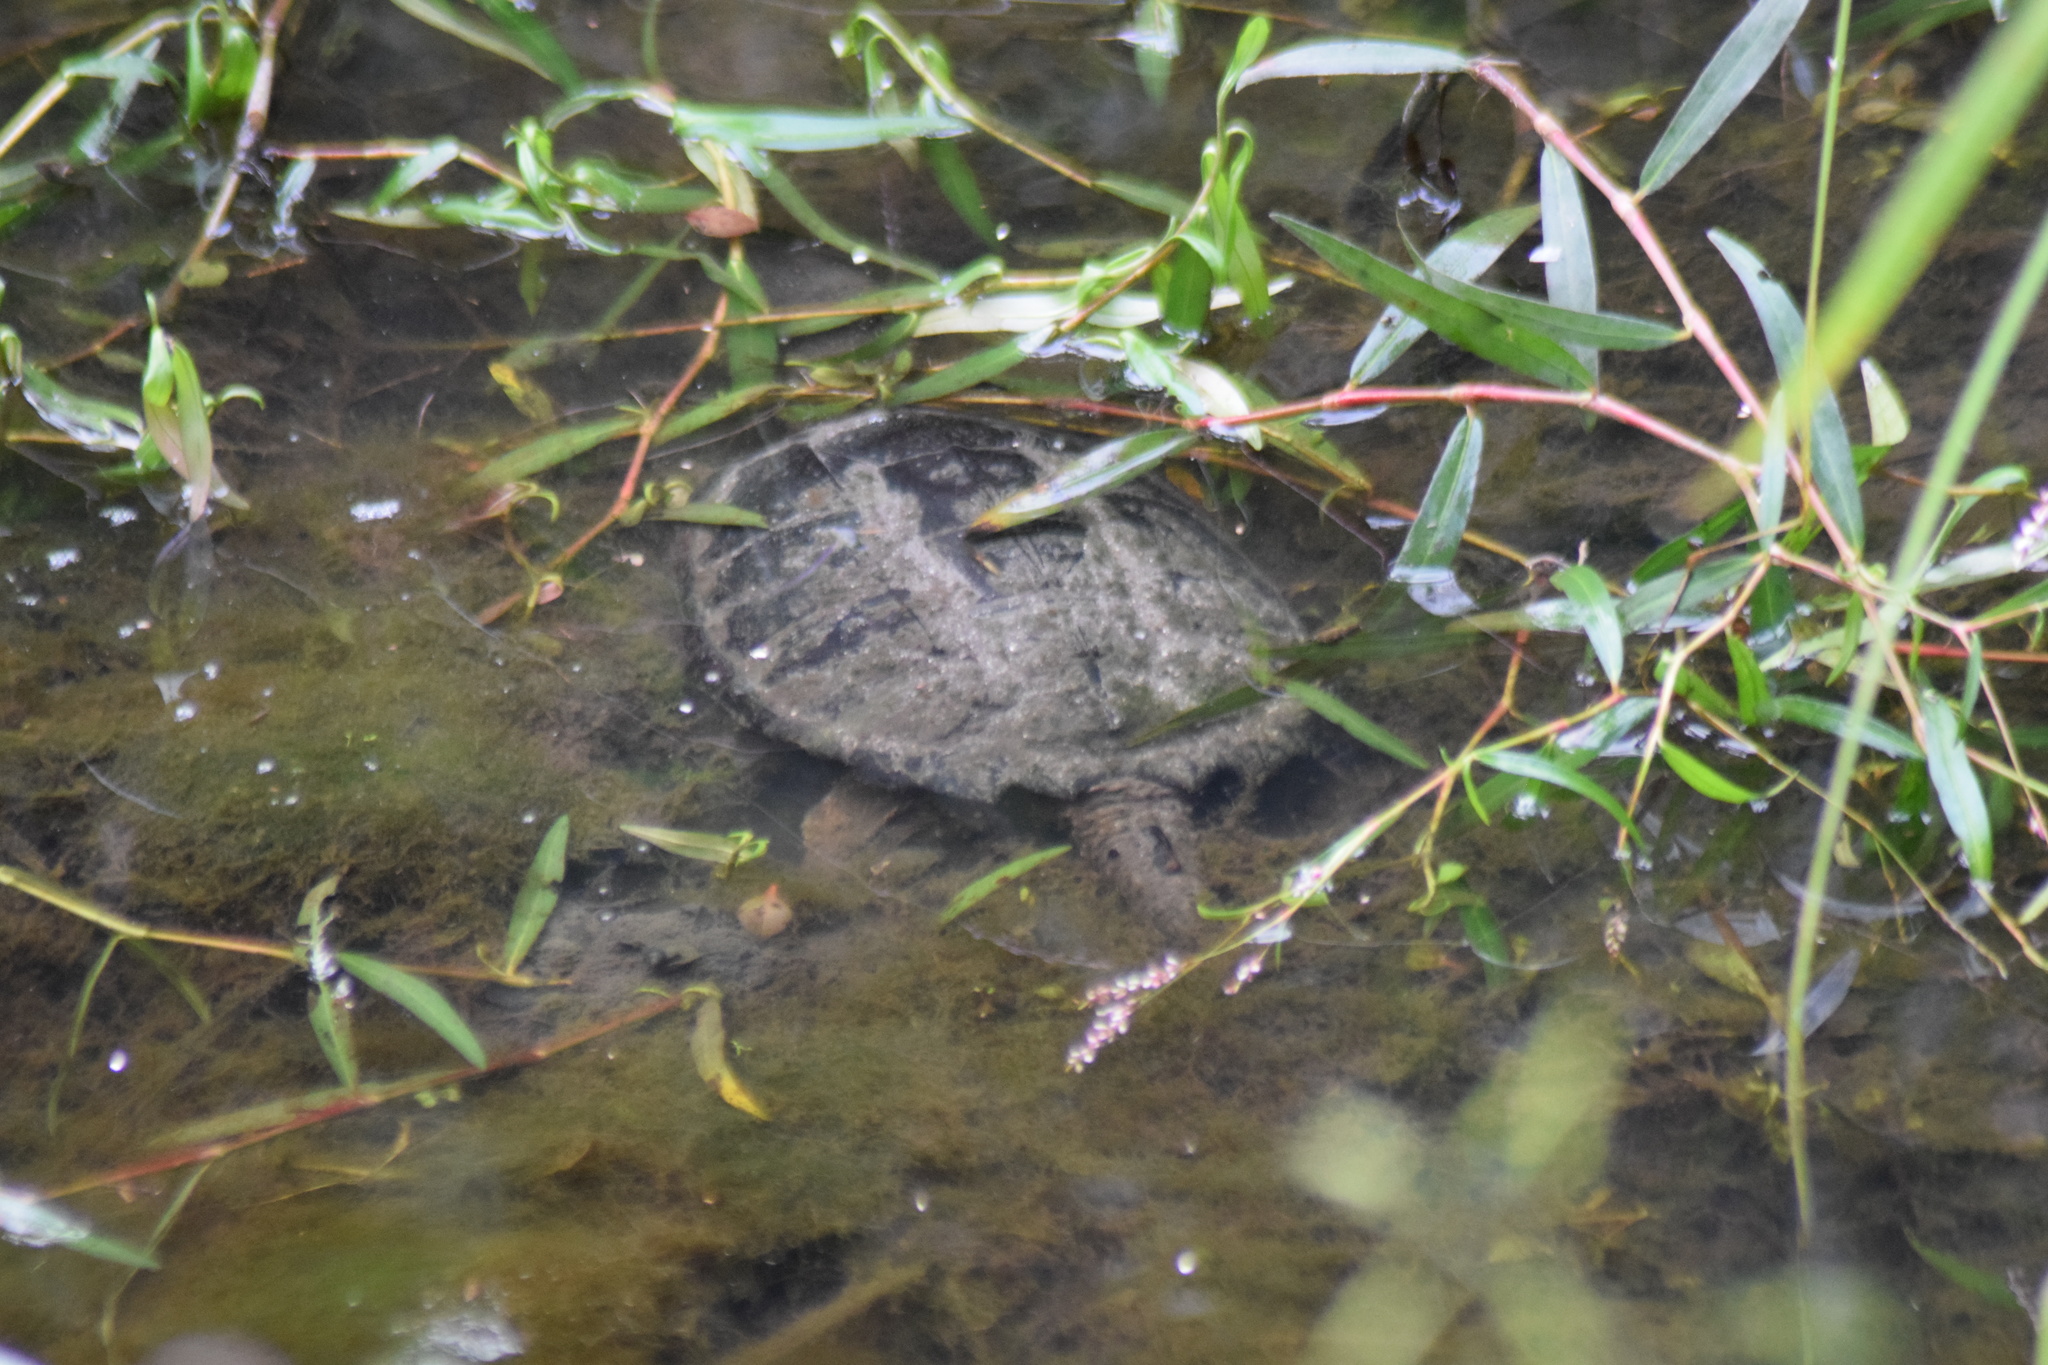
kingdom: Animalia
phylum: Chordata
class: Testudines
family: Chelydridae
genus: Chelydra
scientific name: Chelydra serpentina
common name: Common snapping turtle
